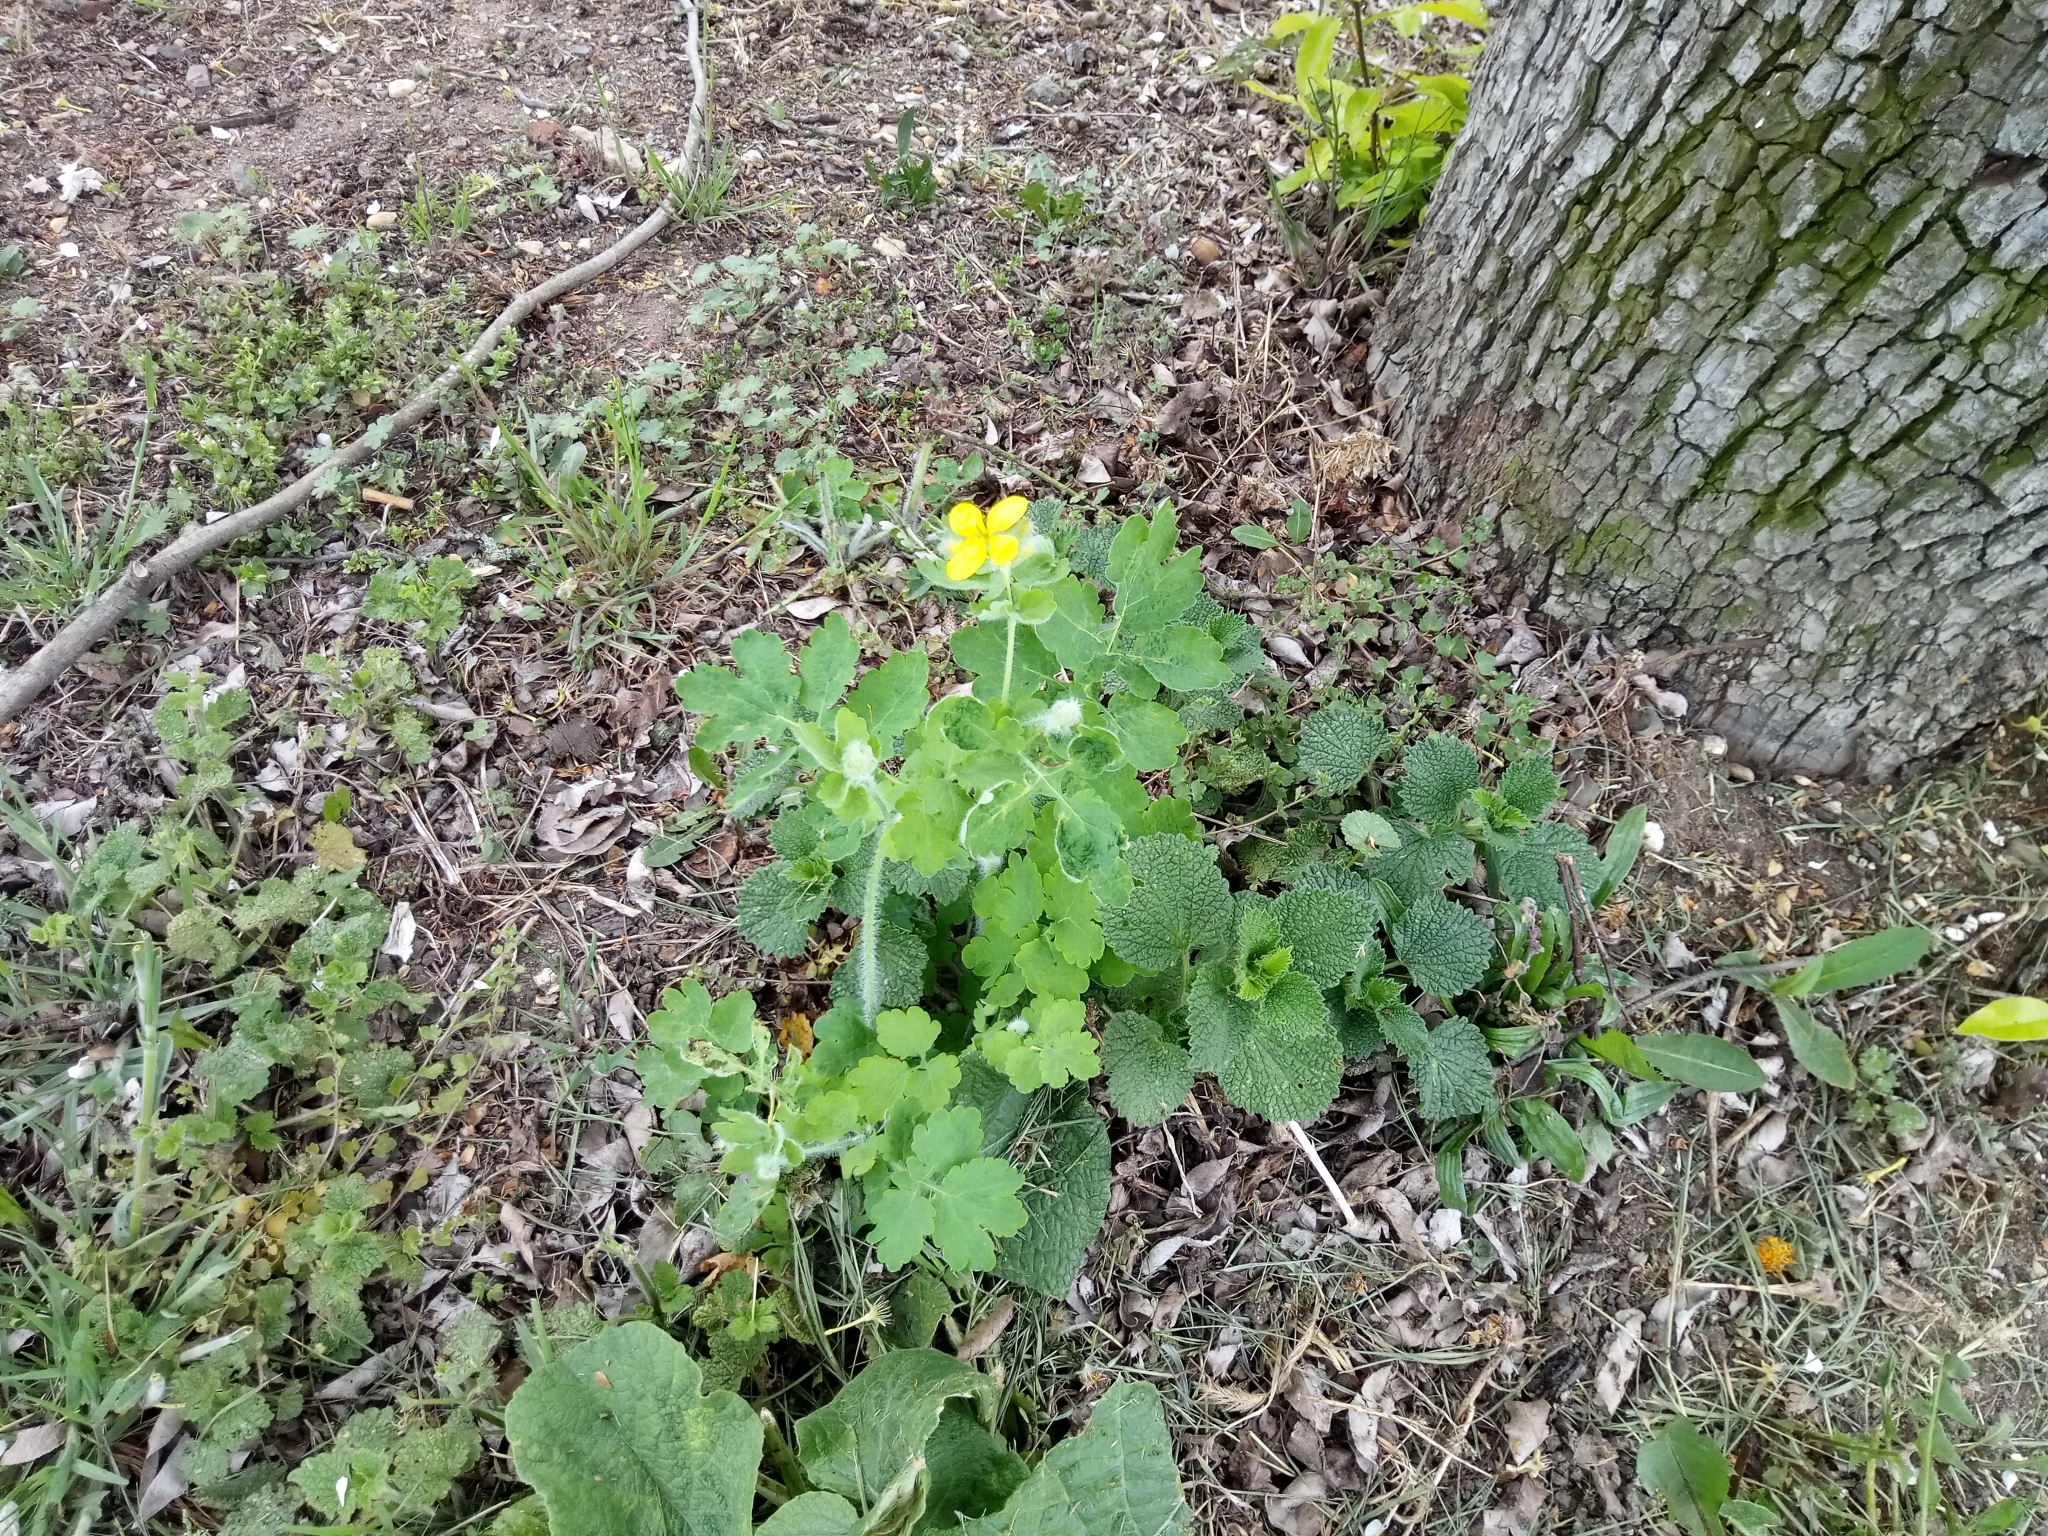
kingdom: Plantae
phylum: Tracheophyta
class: Magnoliopsida
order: Ranunculales
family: Papaveraceae
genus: Chelidonium
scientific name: Chelidonium majus
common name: Greater celandine
